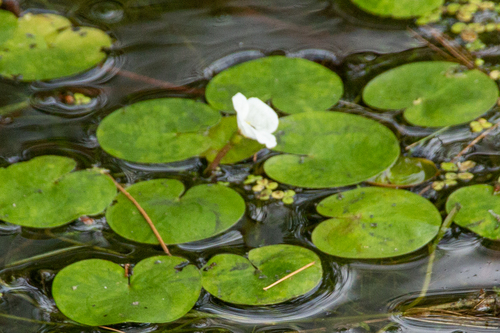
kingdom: Plantae
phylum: Tracheophyta
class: Liliopsida
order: Alismatales
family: Hydrocharitaceae
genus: Hydrocharis
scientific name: Hydrocharis morsus-ranae
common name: European frog-bit
